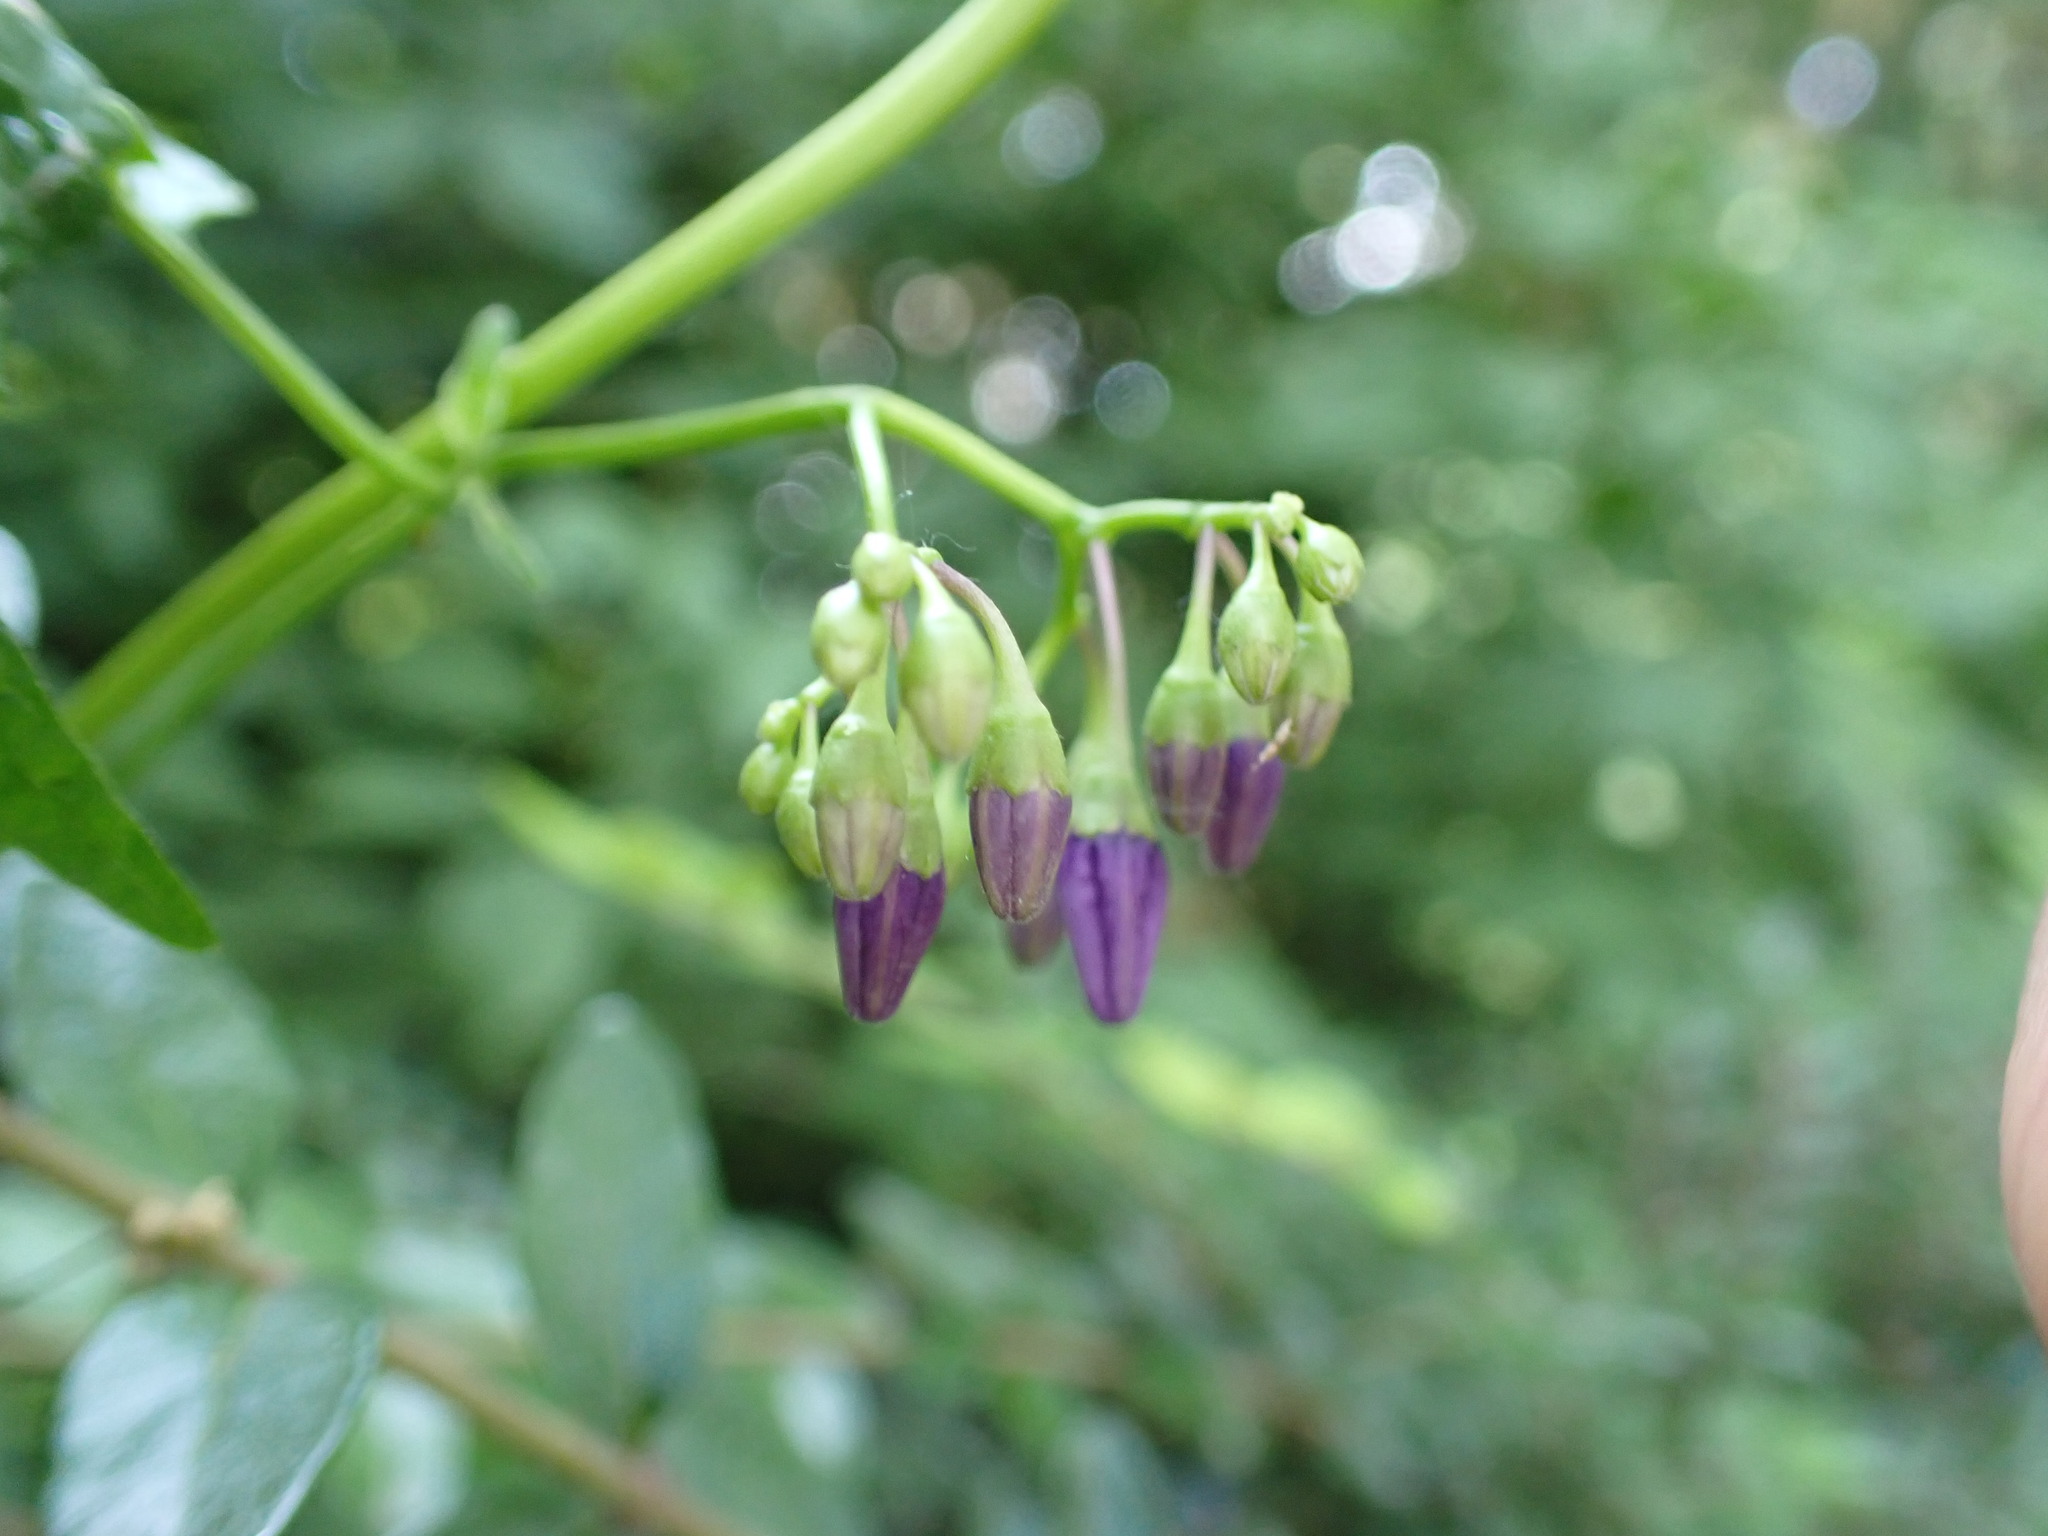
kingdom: Plantae
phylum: Tracheophyta
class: Magnoliopsida
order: Solanales
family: Solanaceae
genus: Solanum
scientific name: Solanum dulcamara
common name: Climbing nightshade
